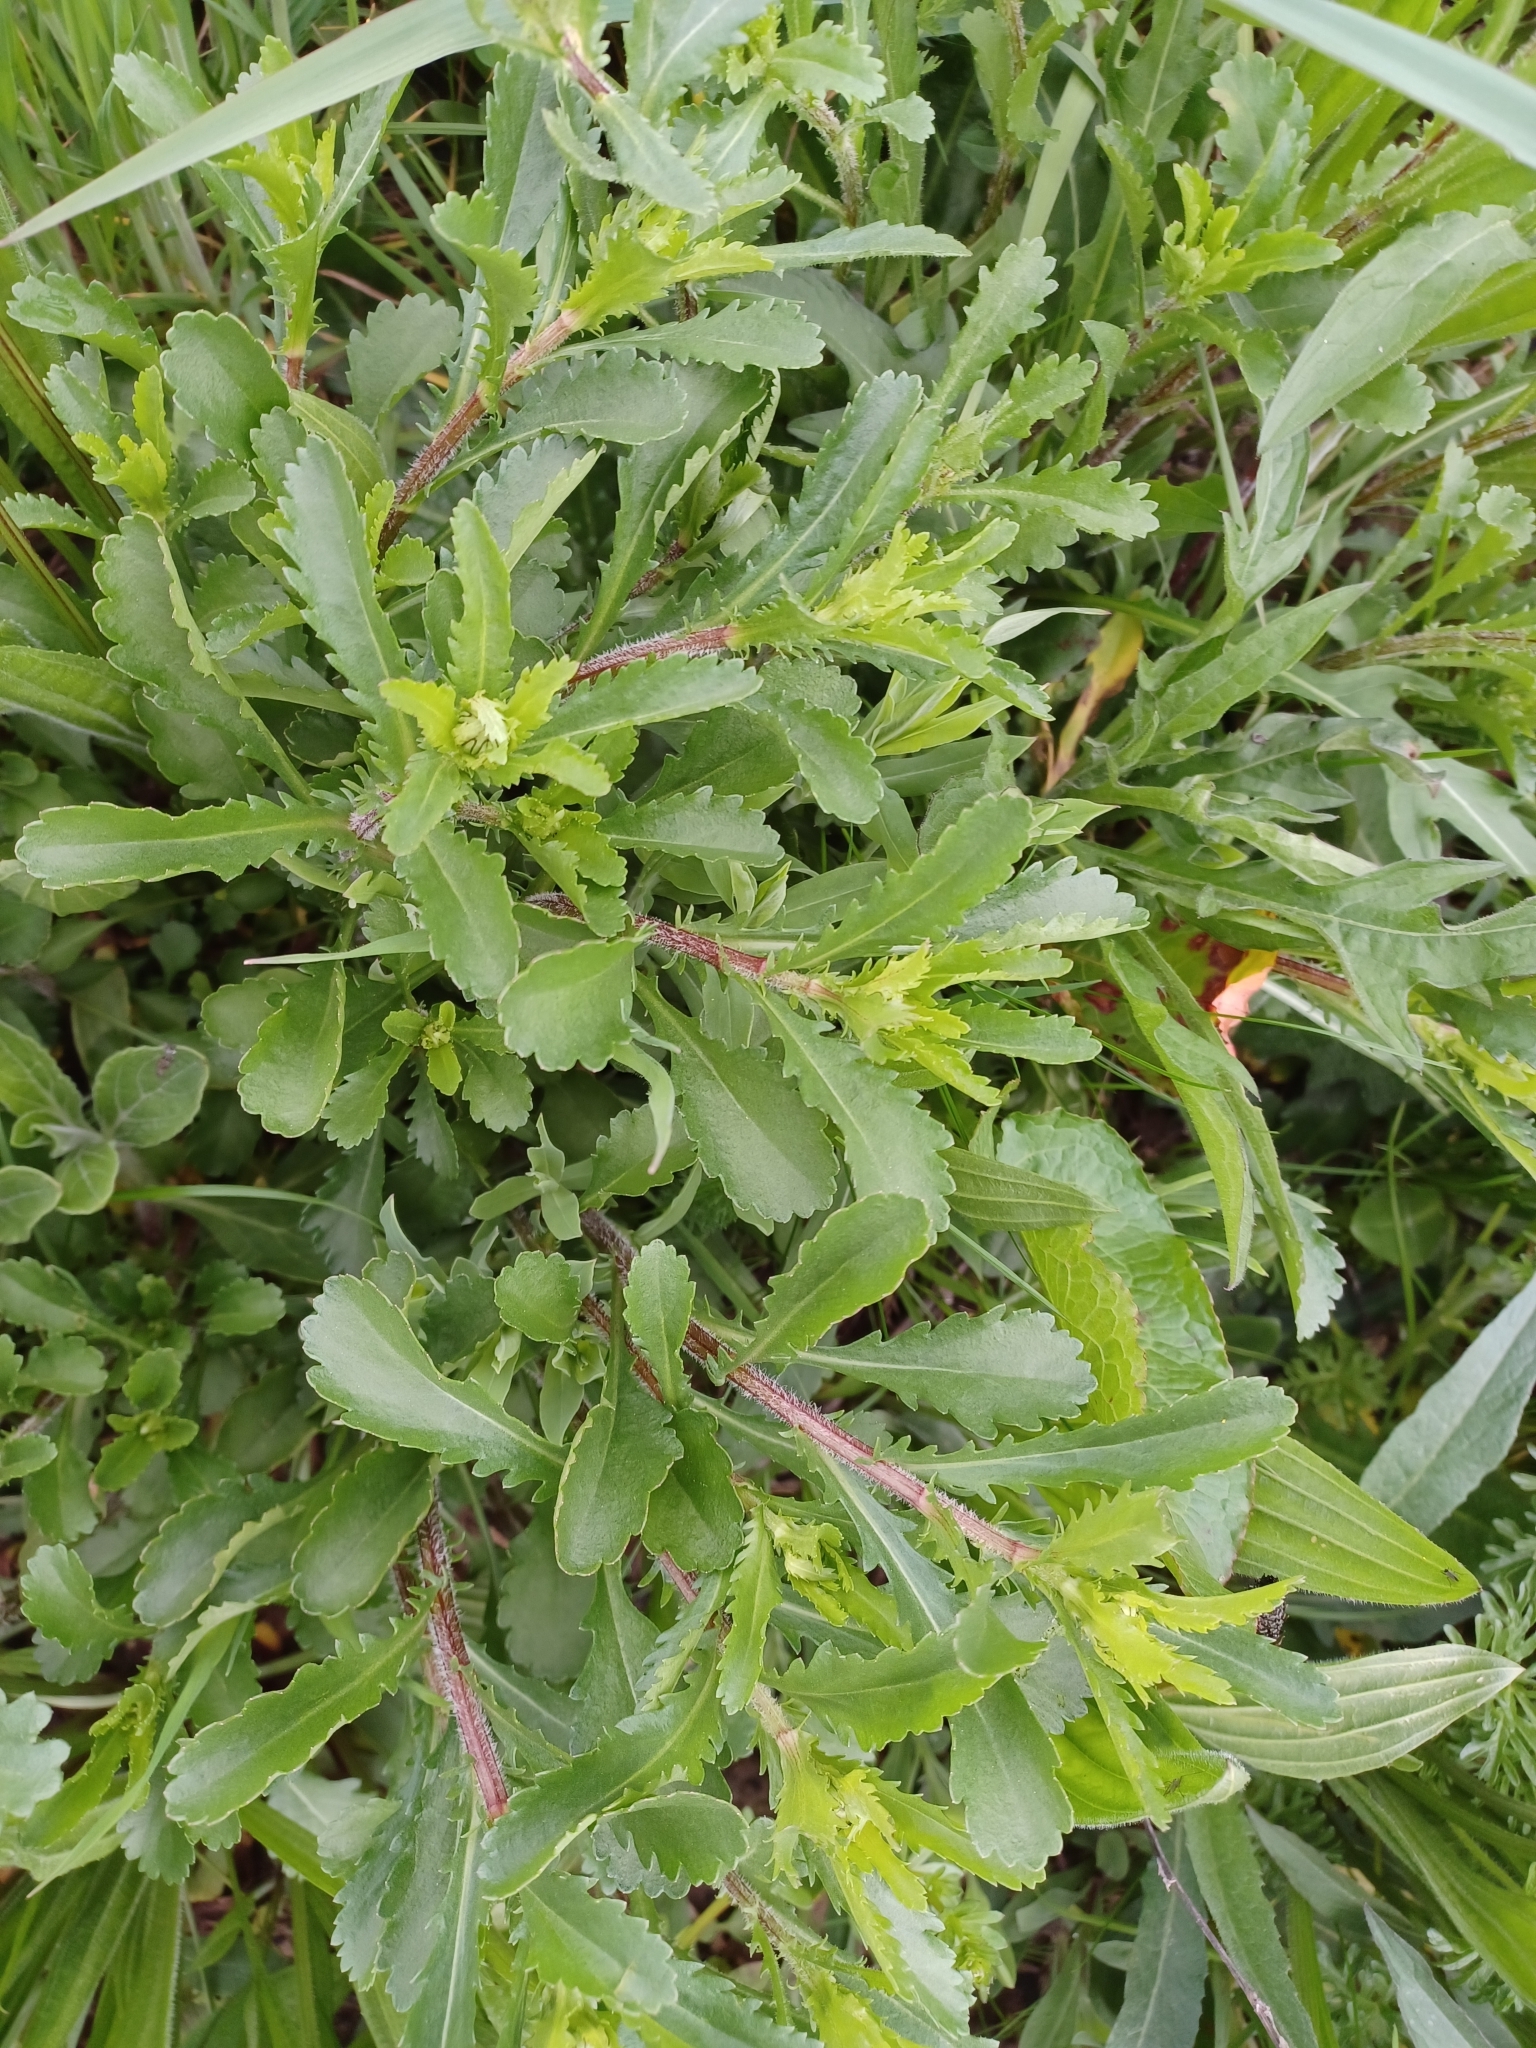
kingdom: Plantae
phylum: Tracheophyta
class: Magnoliopsida
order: Asterales
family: Asteraceae
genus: Leucanthemum
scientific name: Leucanthemum vulgare
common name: Oxeye daisy
